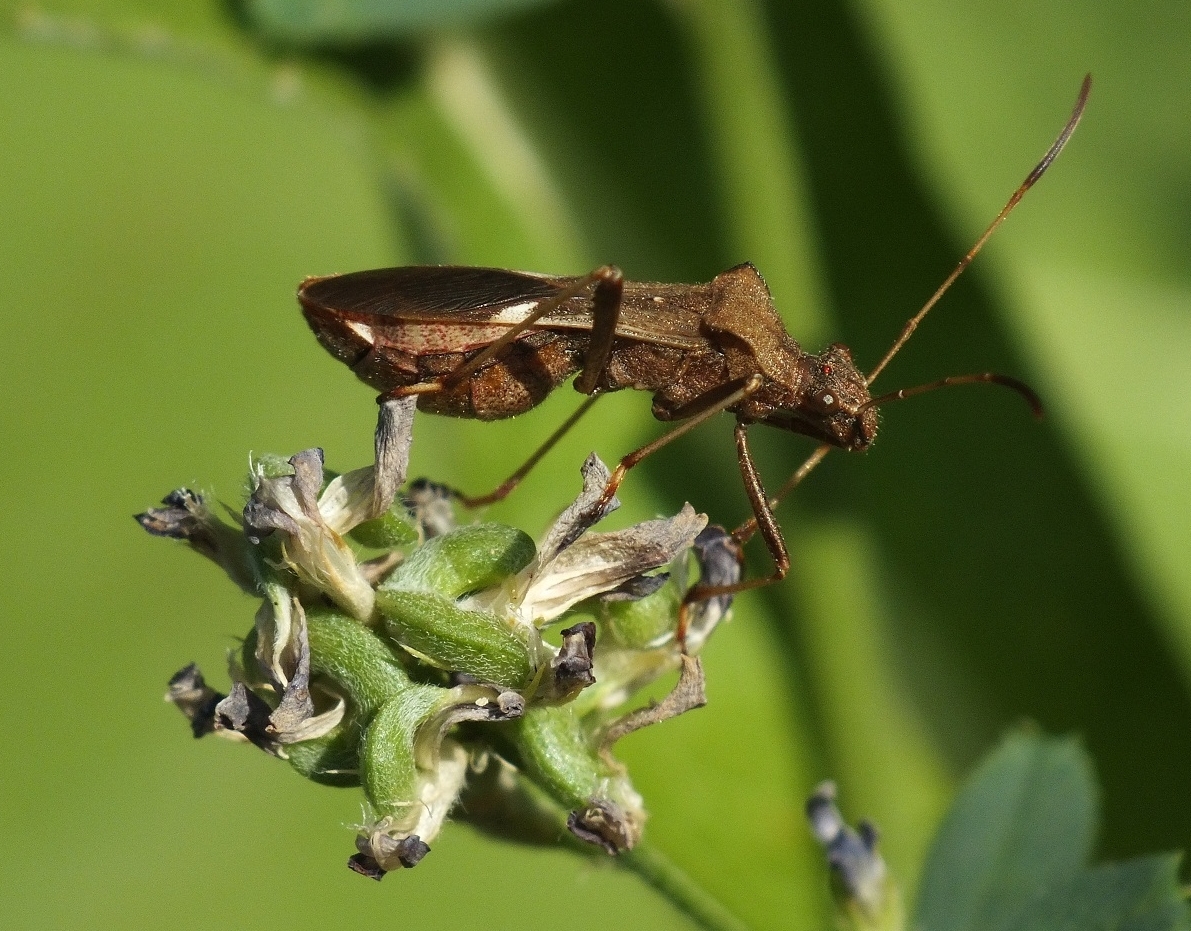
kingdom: Animalia
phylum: Arthropoda
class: Insecta
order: Hemiptera
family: Alydidae
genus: Megalotomus
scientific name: Megalotomus ornaticeps
